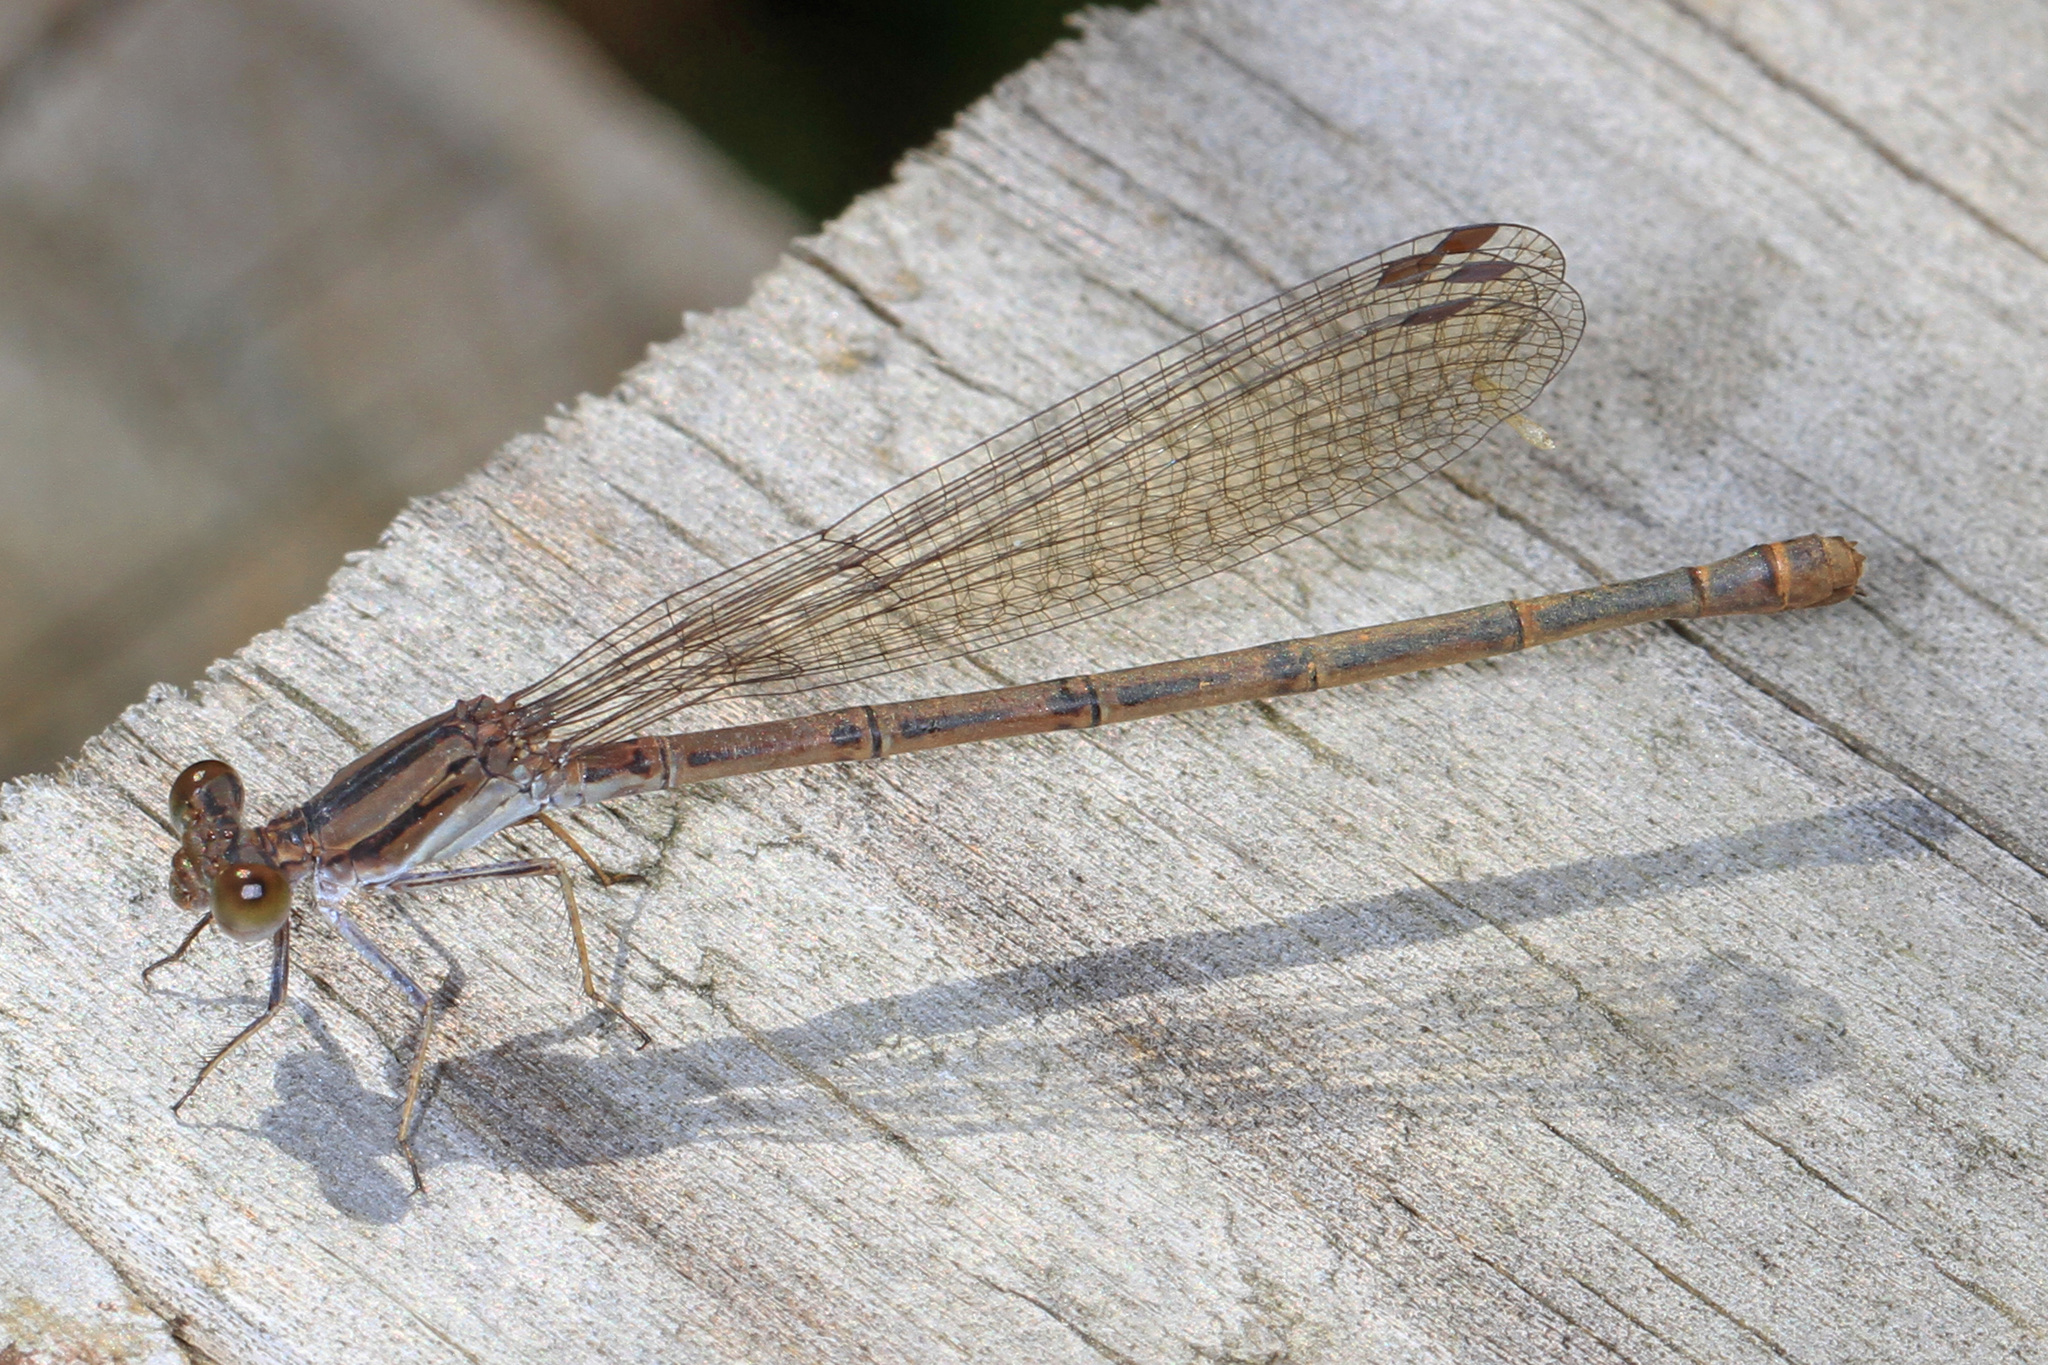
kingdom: Animalia
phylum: Arthropoda
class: Insecta
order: Odonata
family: Coenagrionidae
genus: Argia
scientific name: Argia fumipennis
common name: Variable dancer
